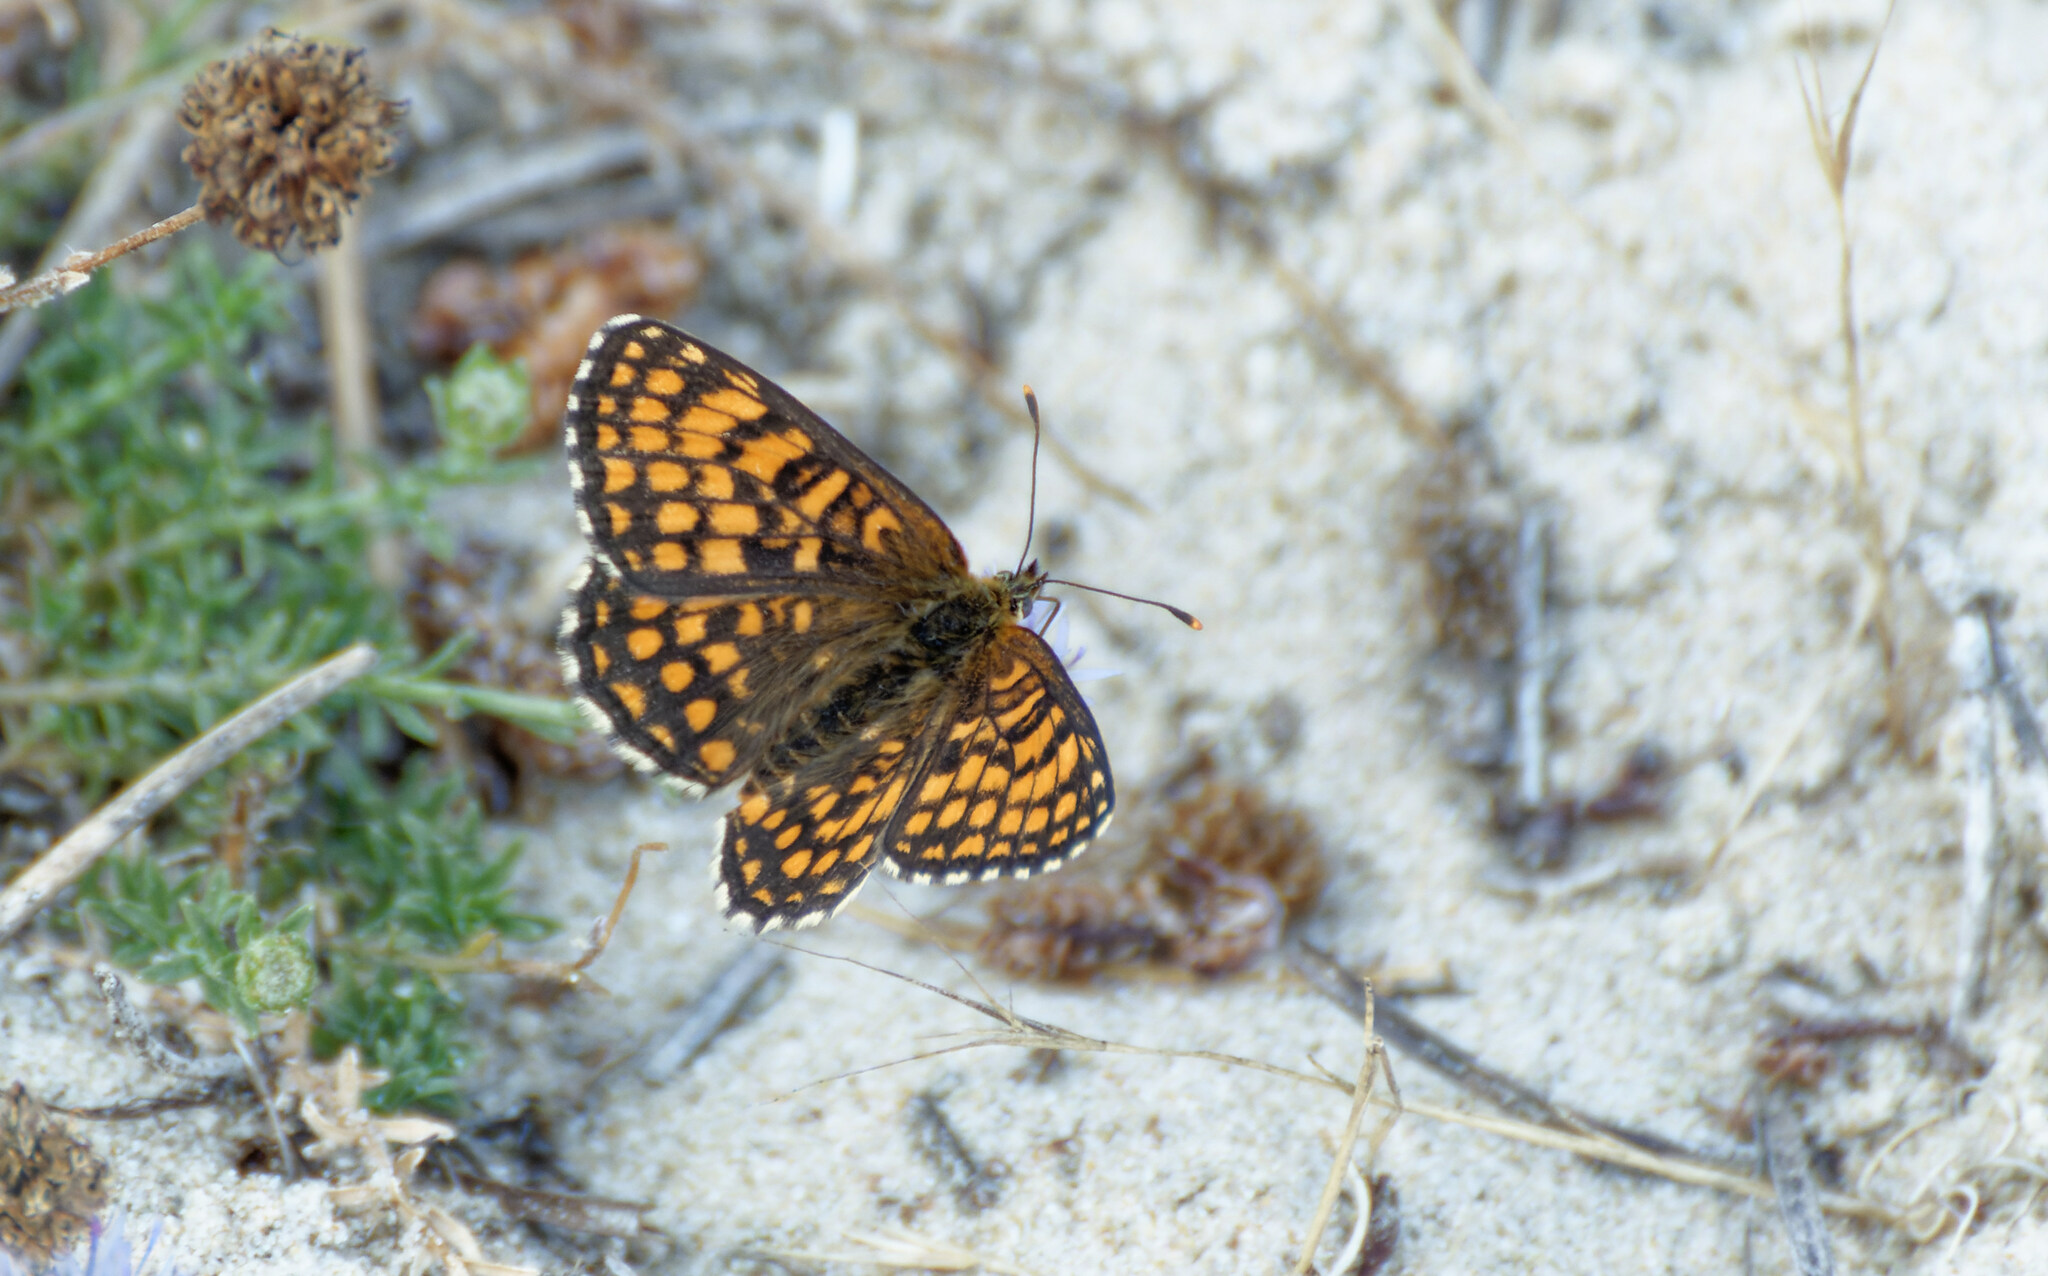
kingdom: Animalia
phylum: Arthropoda
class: Insecta
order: Lepidoptera
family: Nymphalidae
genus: Melitaea
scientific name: Melitaea athalia
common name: Heath fritillary
